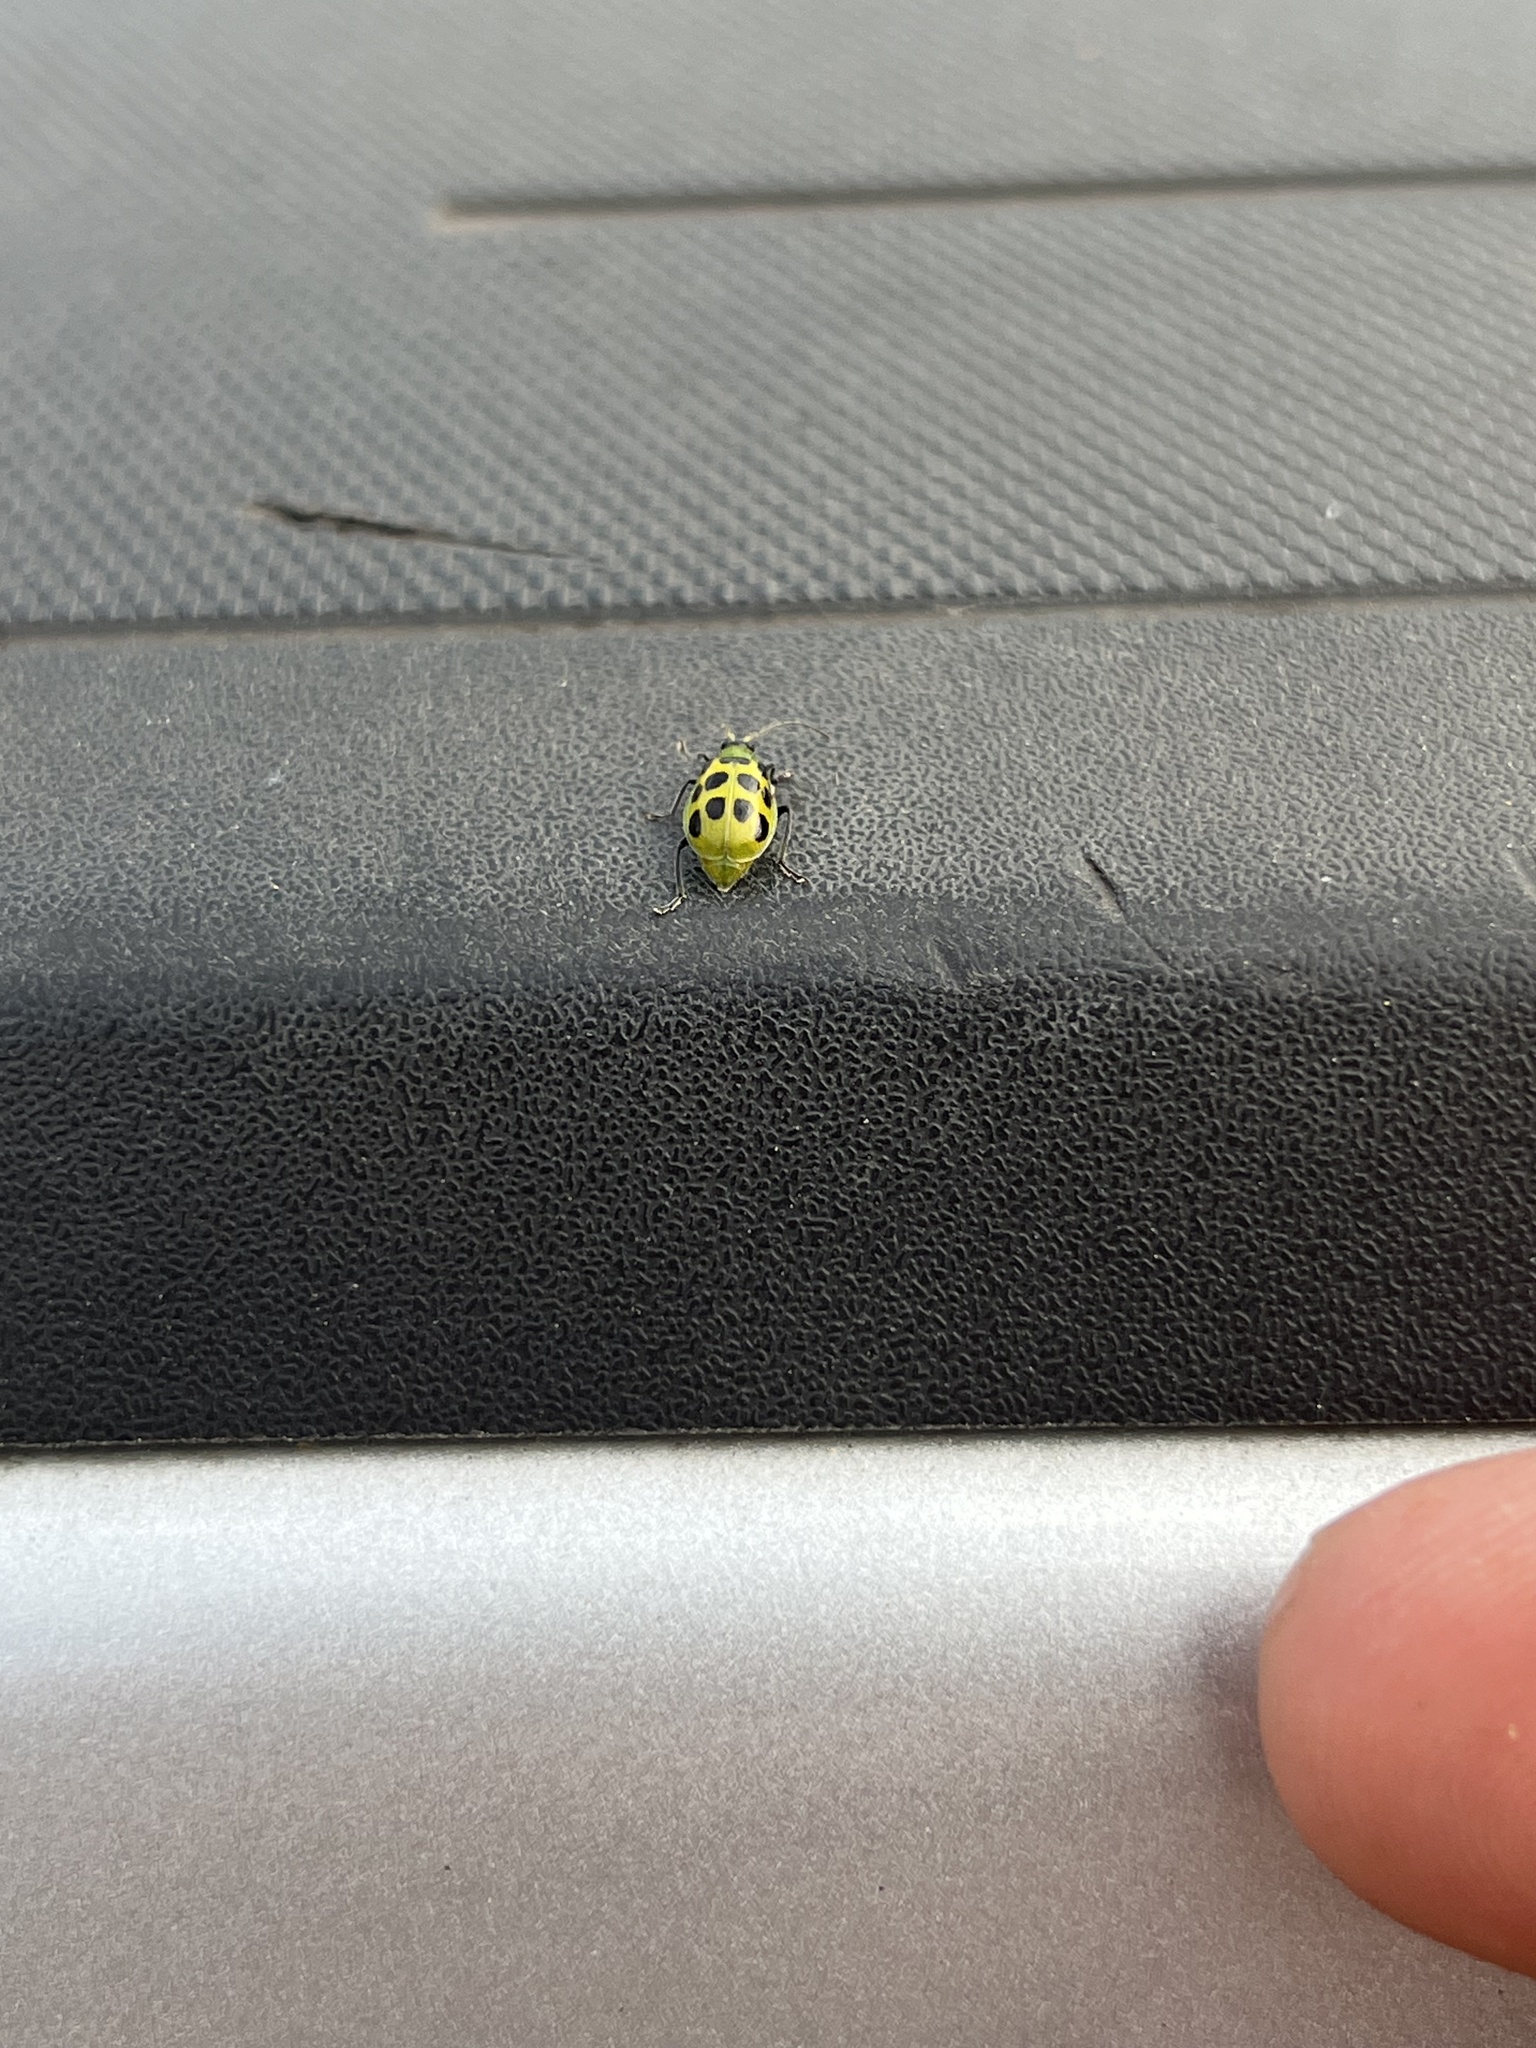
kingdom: Animalia
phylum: Arthropoda
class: Insecta
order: Coleoptera
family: Chrysomelidae
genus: Diabrotica
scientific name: Diabrotica undecimpunctata
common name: Spotted cucumber beetle
